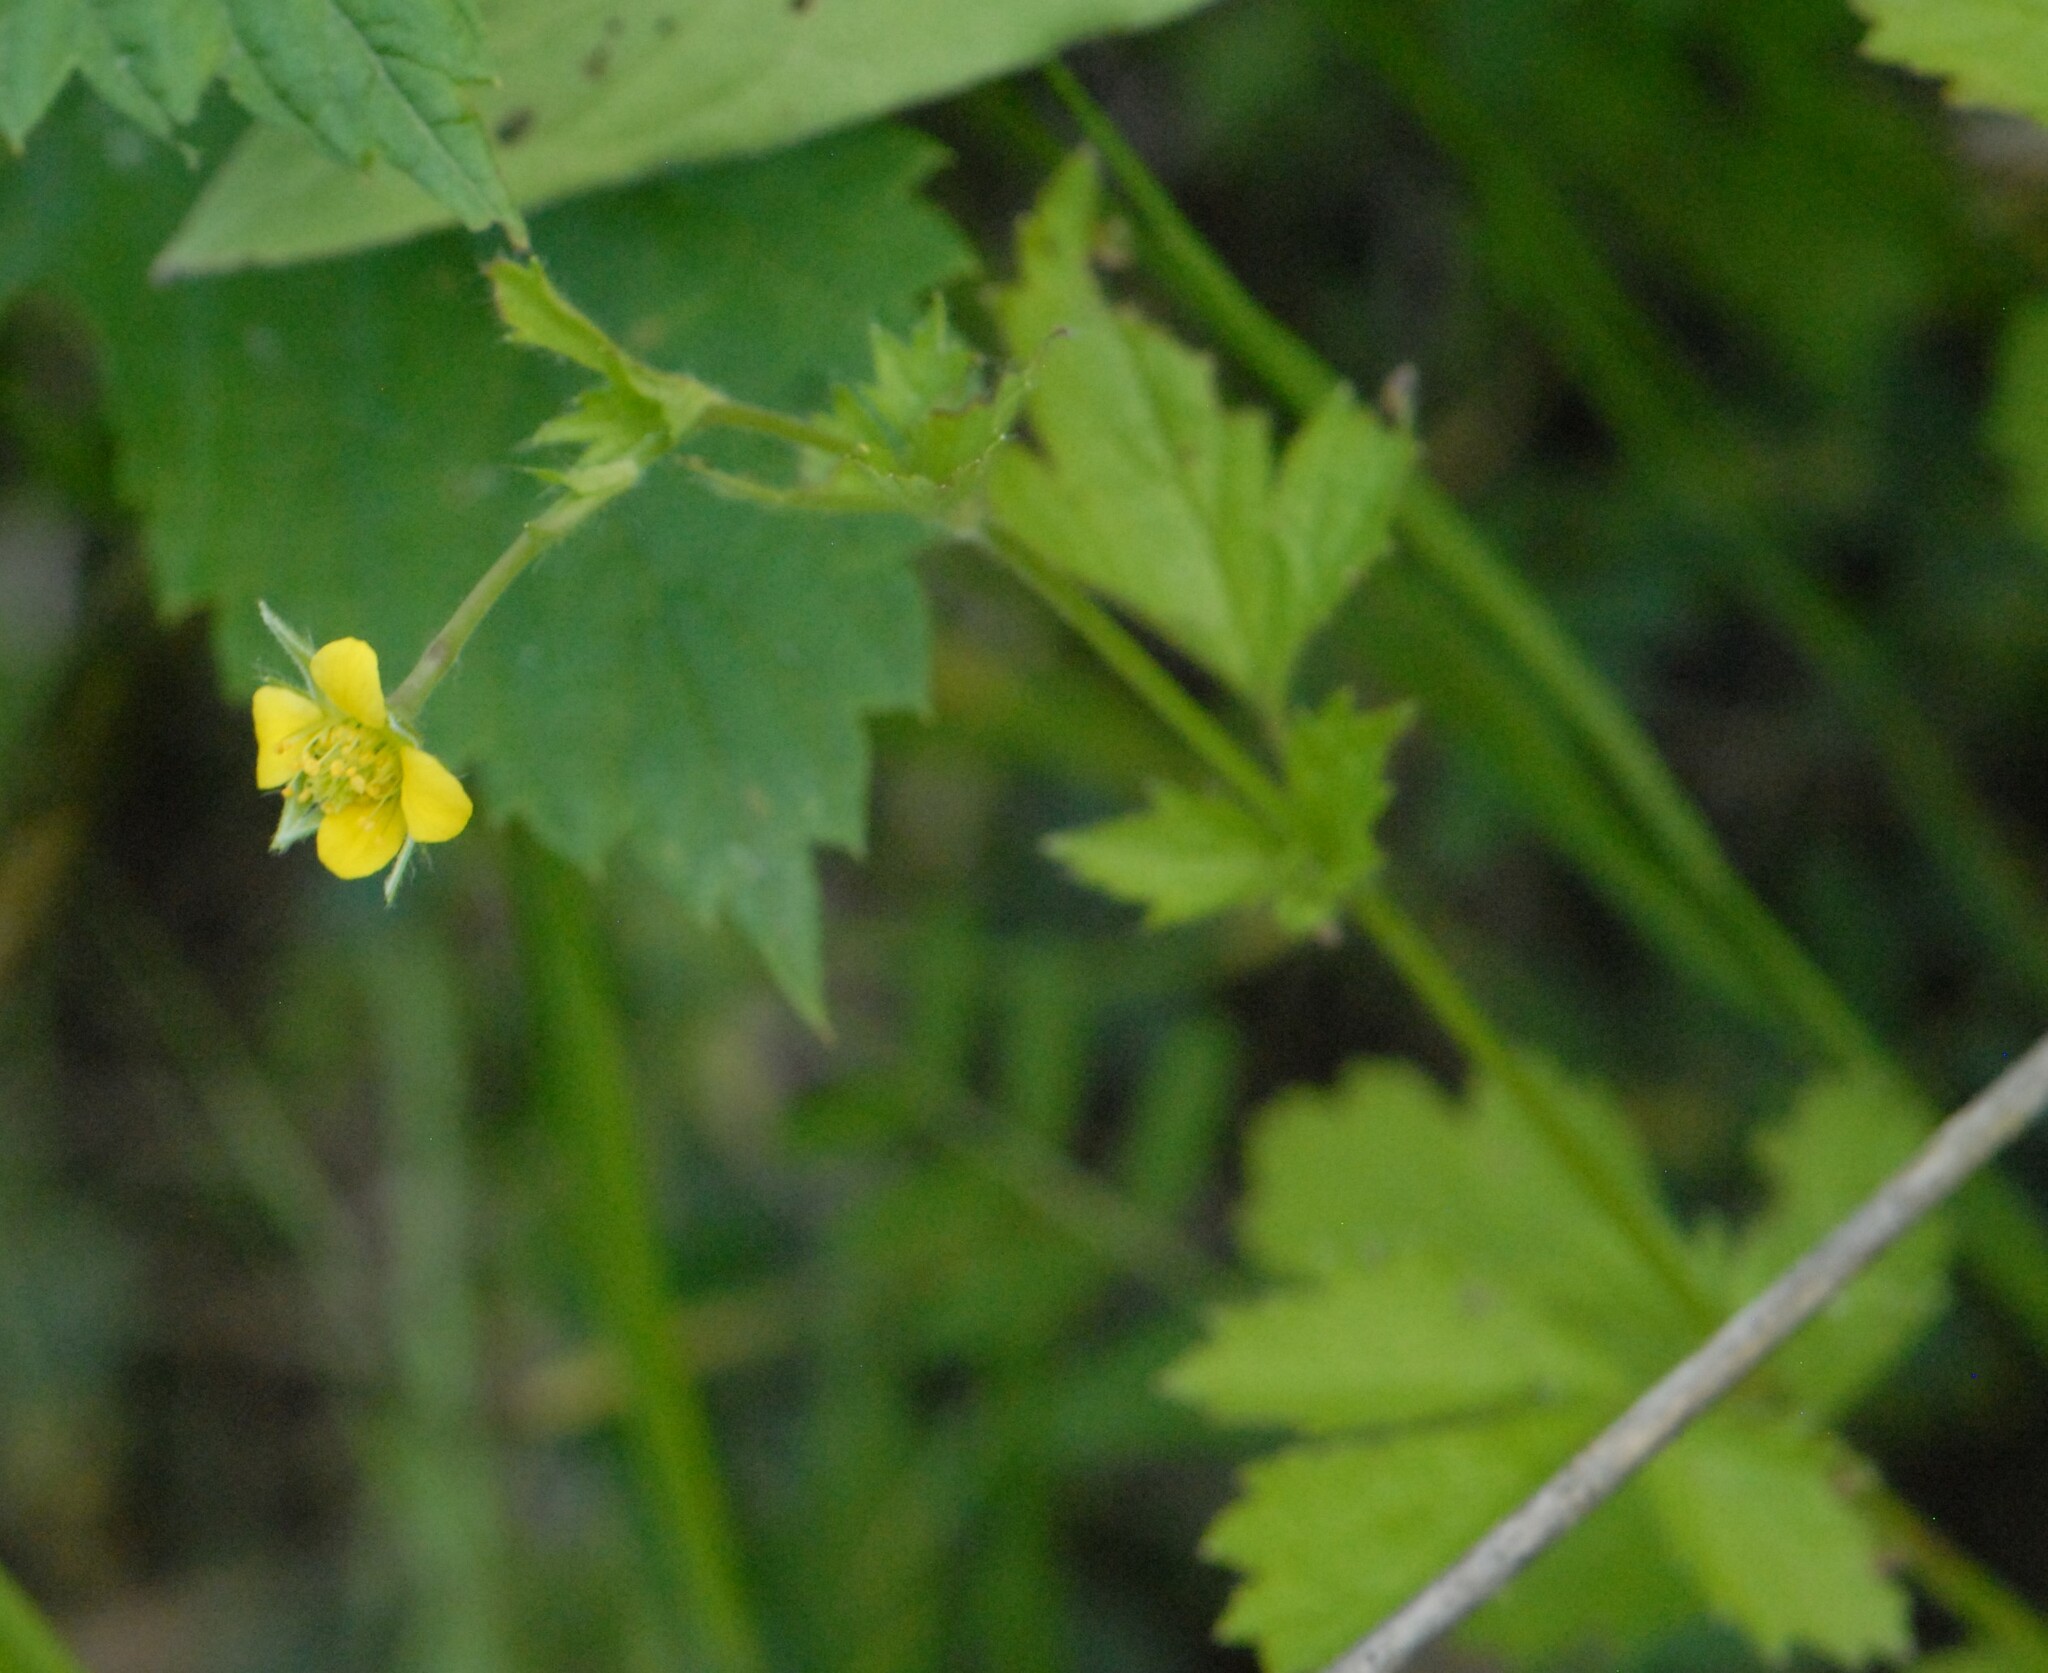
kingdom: Plantae
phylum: Tracheophyta
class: Magnoliopsida
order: Rosales
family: Rosaceae
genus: Geum
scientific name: Geum urbanum
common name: Wood avens
